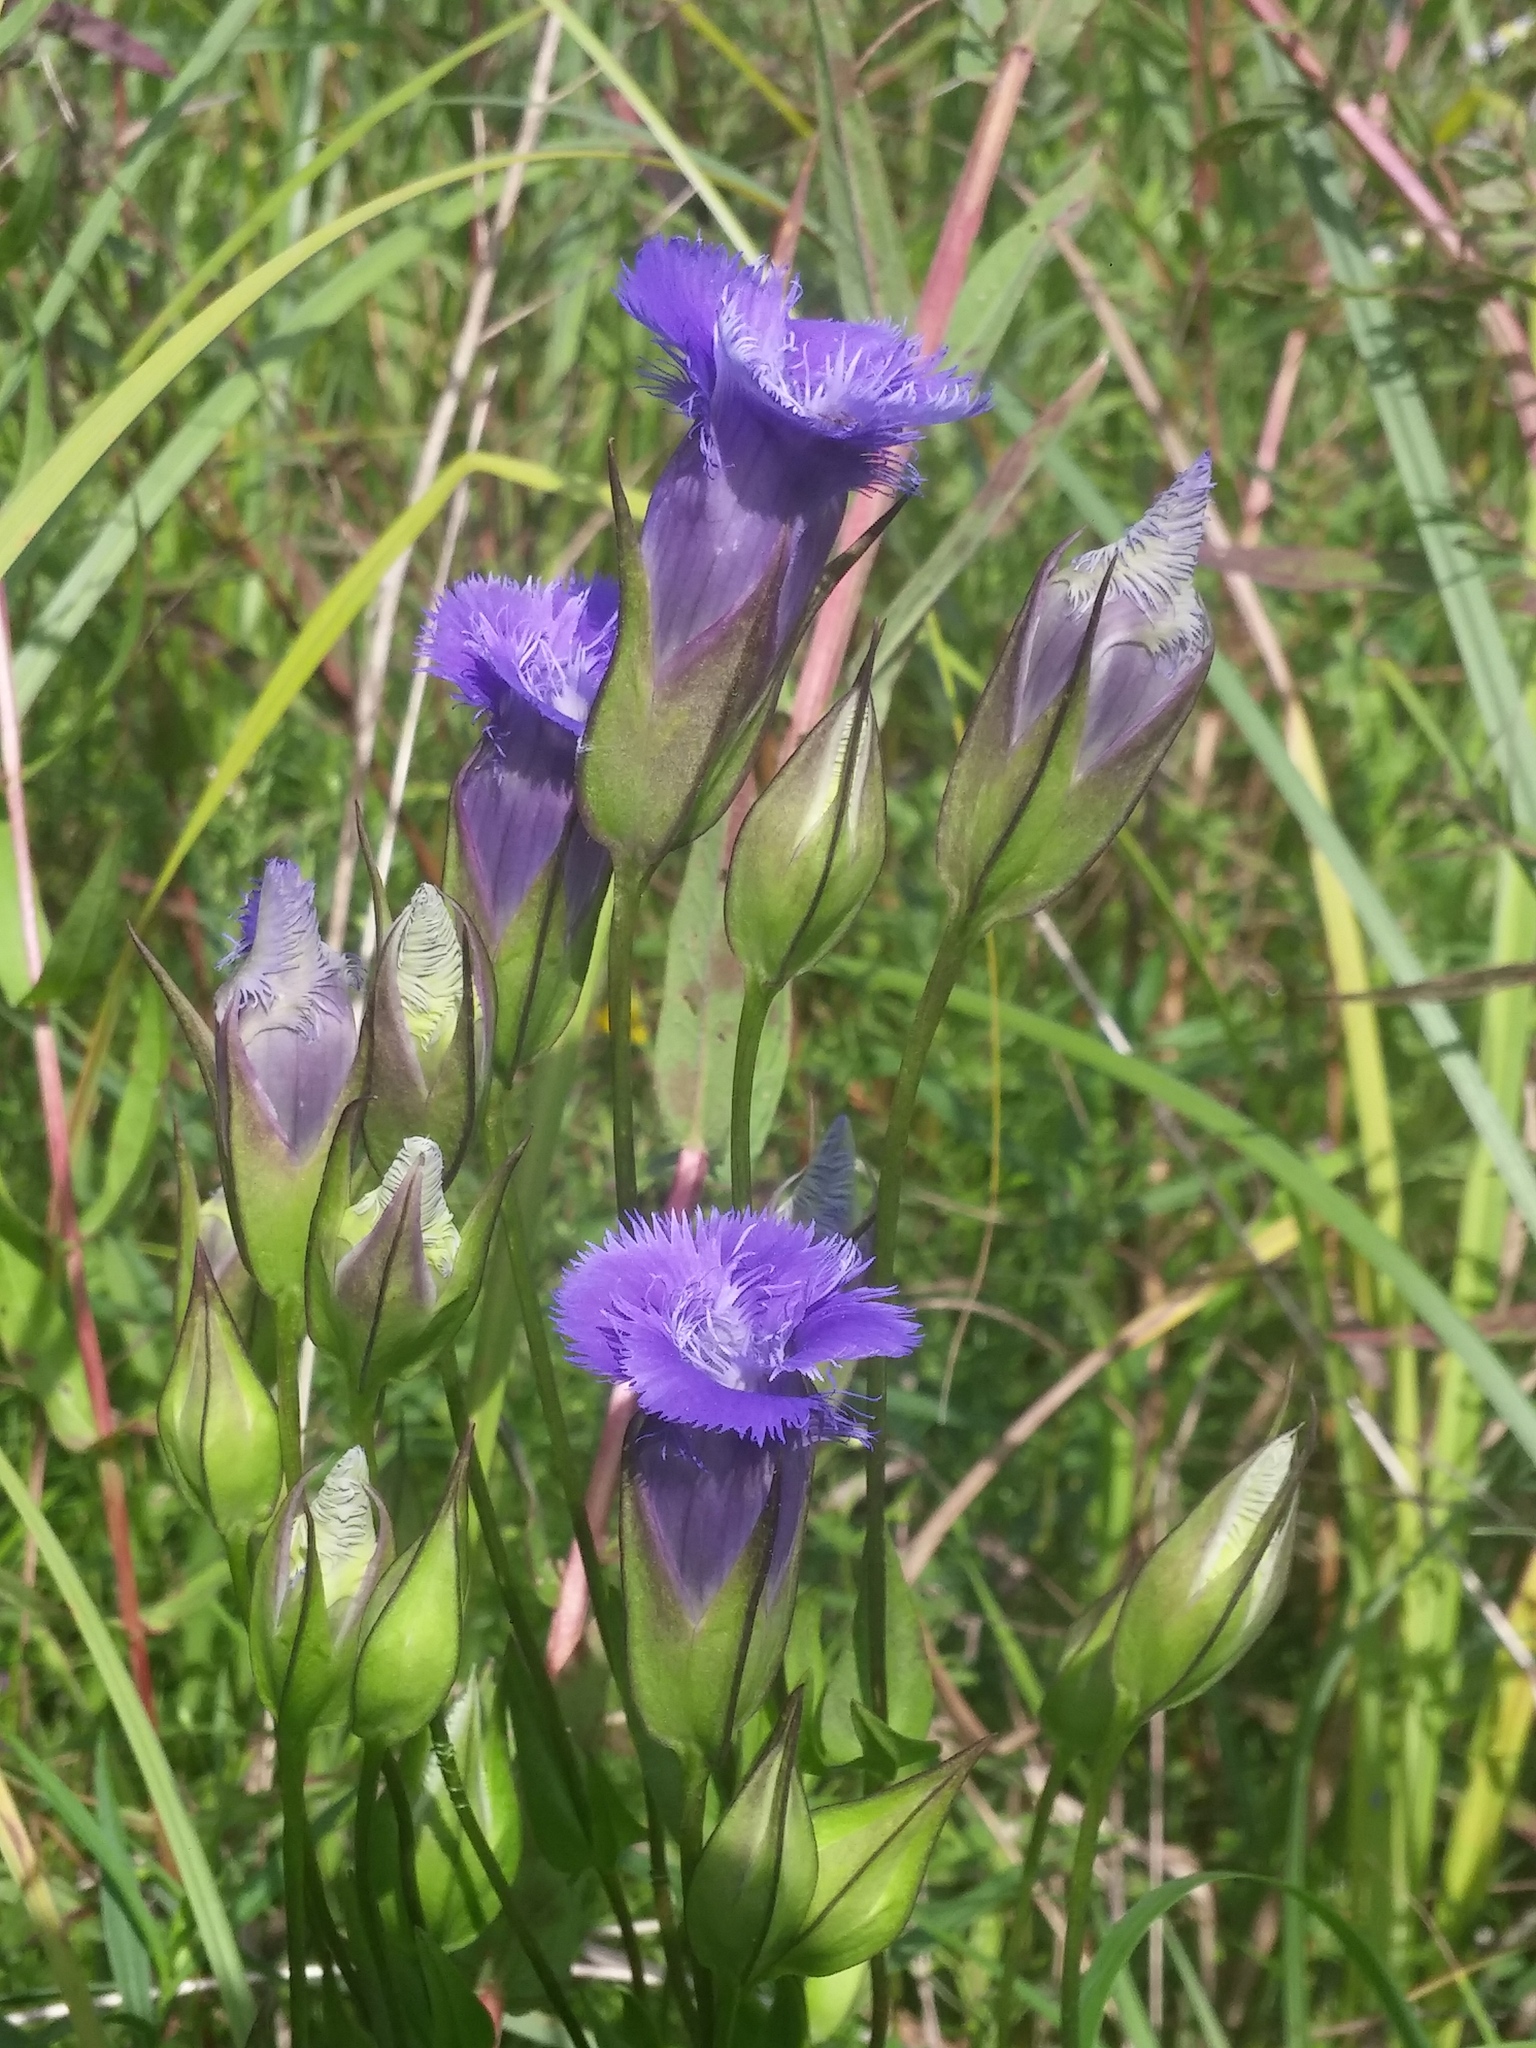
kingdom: Plantae
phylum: Tracheophyta
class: Magnoliopsida
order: Gentianales
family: Gentianaceae
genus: Gentianopsis
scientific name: Gentianopsis crinita
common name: Fringed-gentian
